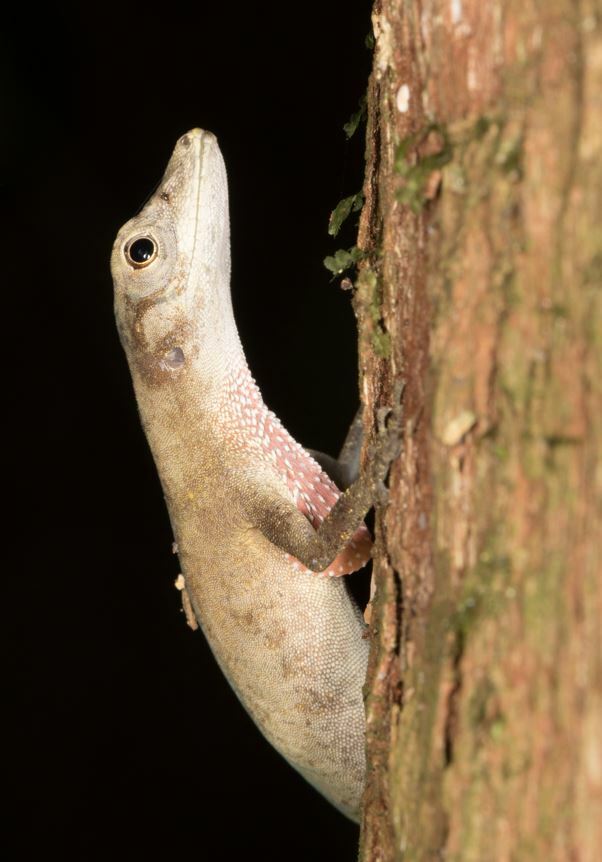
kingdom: Animalia
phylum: Chordata
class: Squamata
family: Dactyloidae
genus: Anolis
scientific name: Anolis fuscoauratus
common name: Brown-eared anole
